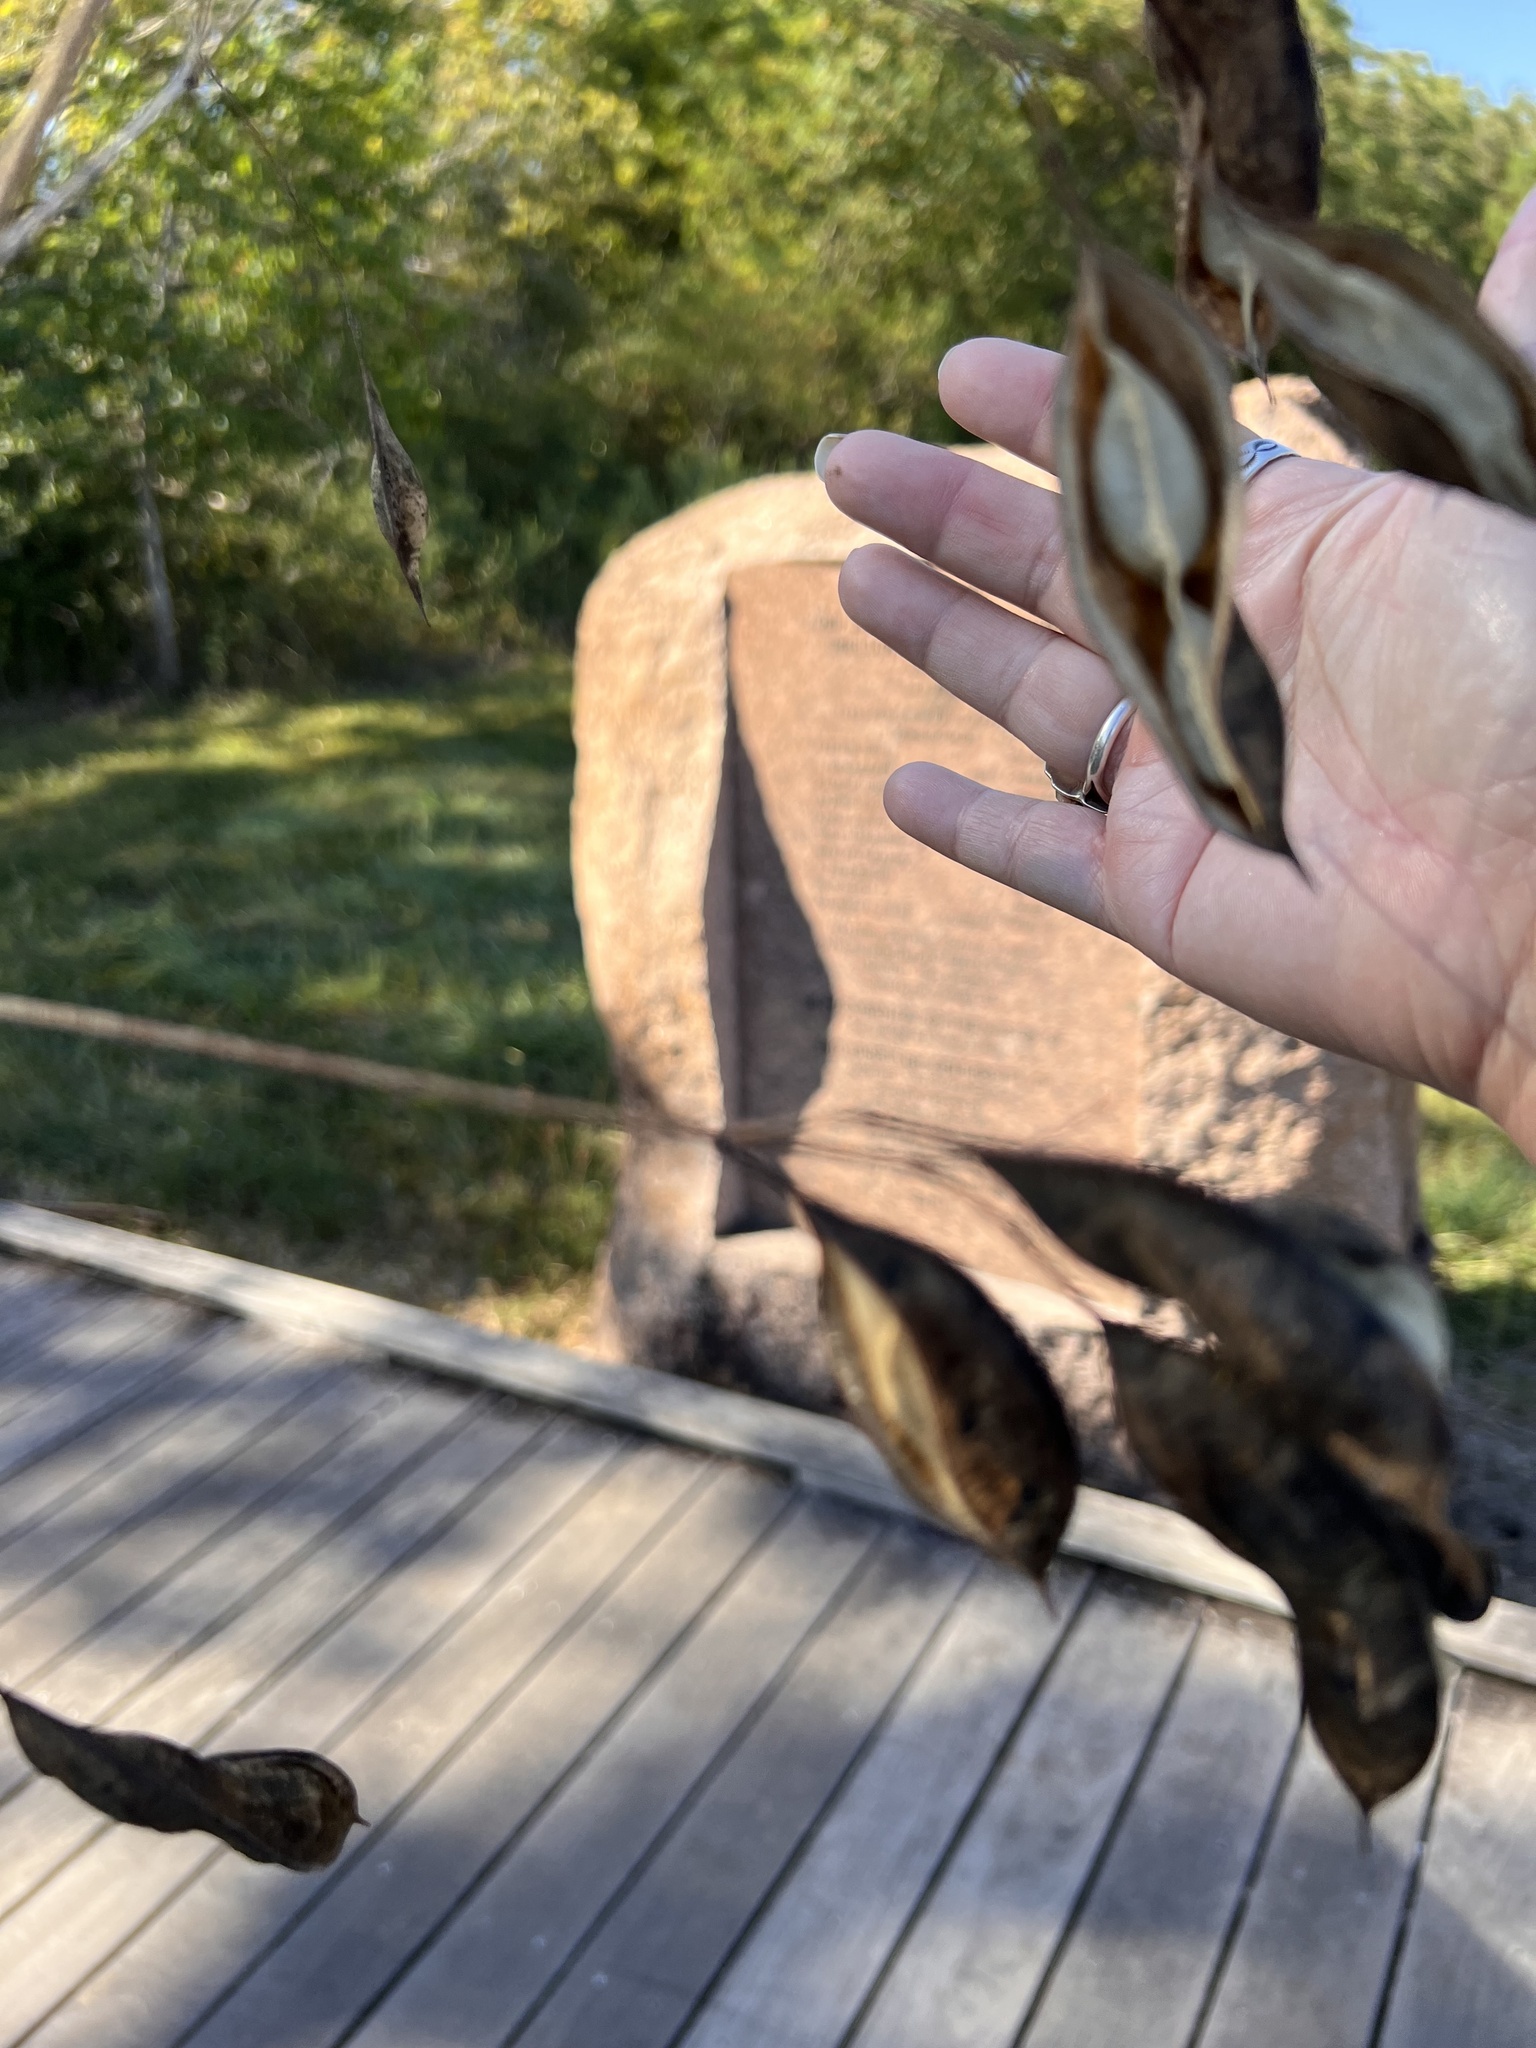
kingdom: Plantae
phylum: Tracheophyta
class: Magnoliopsida
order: Fabales
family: Fabaceae
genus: Sesbania
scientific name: Sesbania vesicaria
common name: Bagpod
